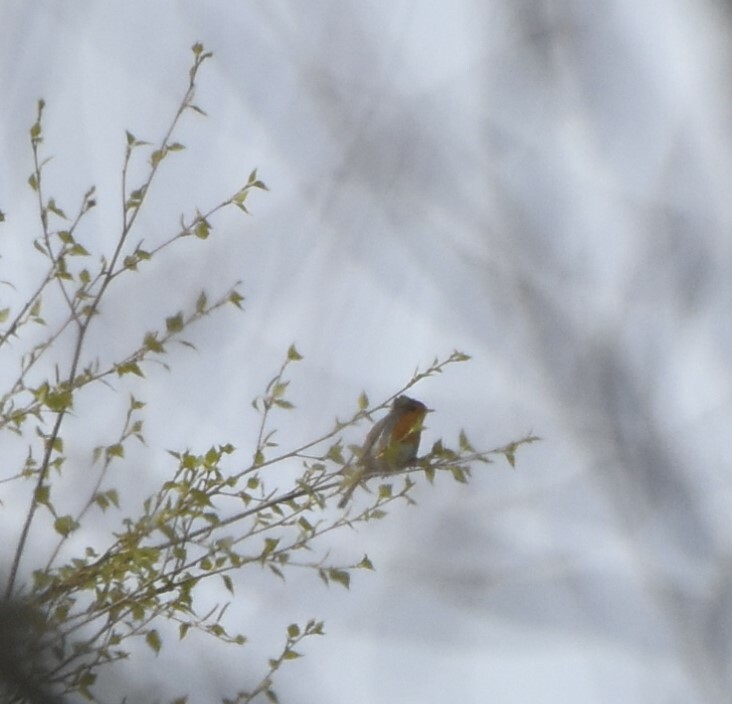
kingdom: Animalia
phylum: Chordata
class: Aves
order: Passeriformes
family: Muscicapidae
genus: Erithacus
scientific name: Erithacus rubecula
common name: European robin
